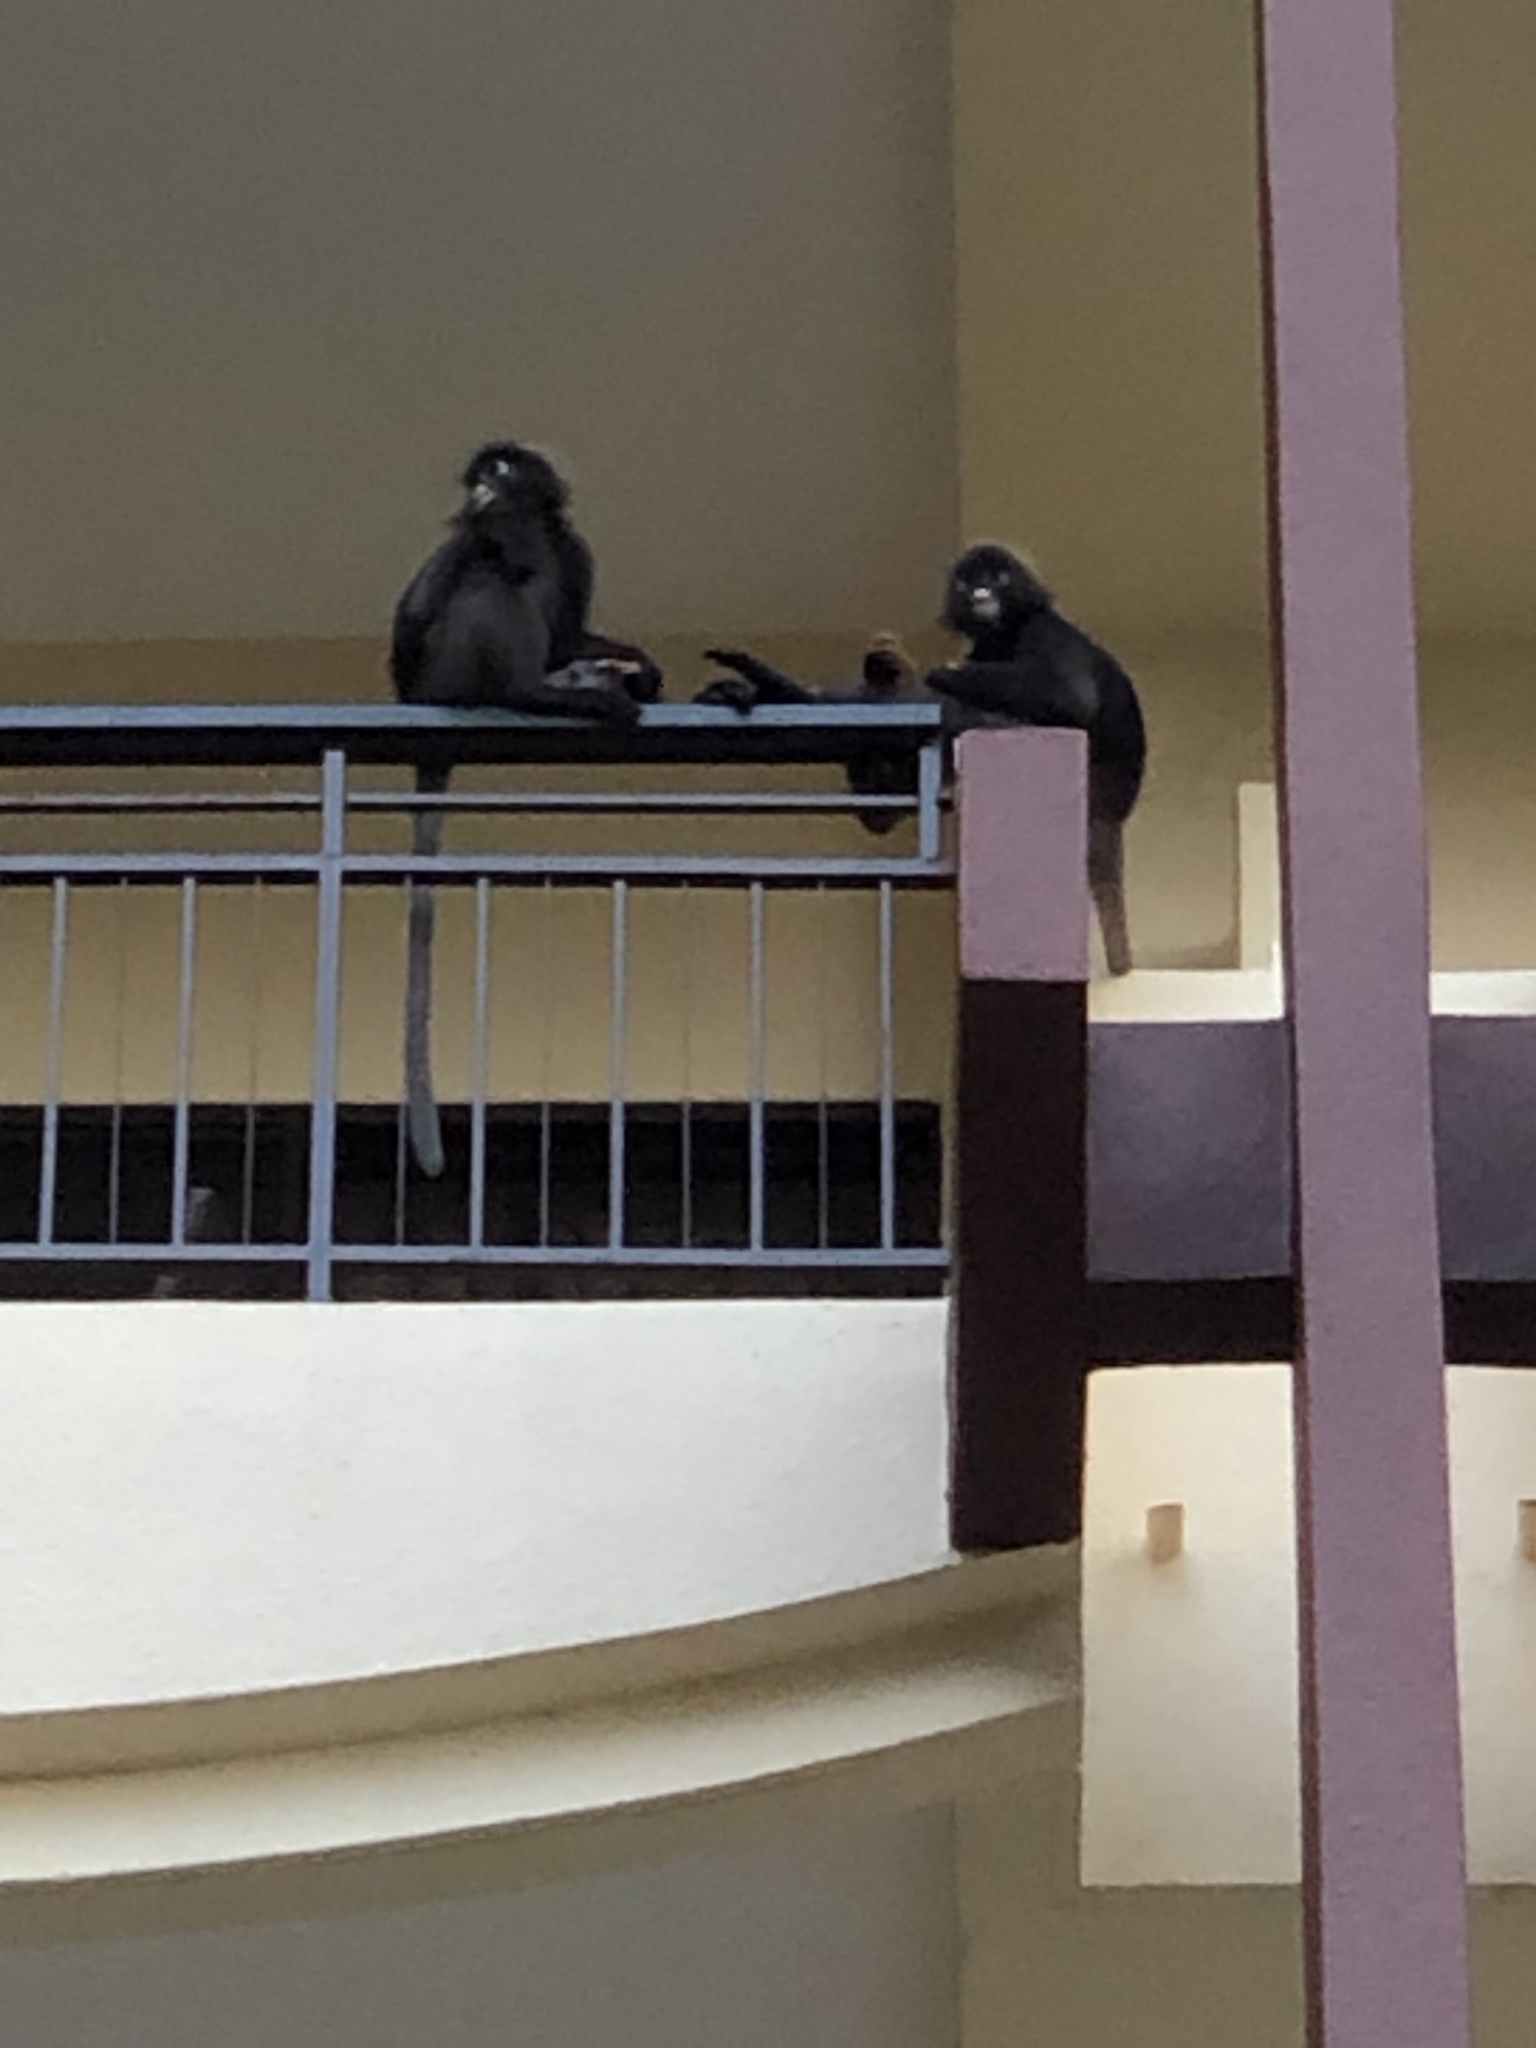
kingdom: Animalia
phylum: Chordata
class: Mammalia
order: Primates
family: Cercopithecidae
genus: Trachypithecus
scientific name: Trachypithecus obscurus
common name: Dusky leaf-monkey
